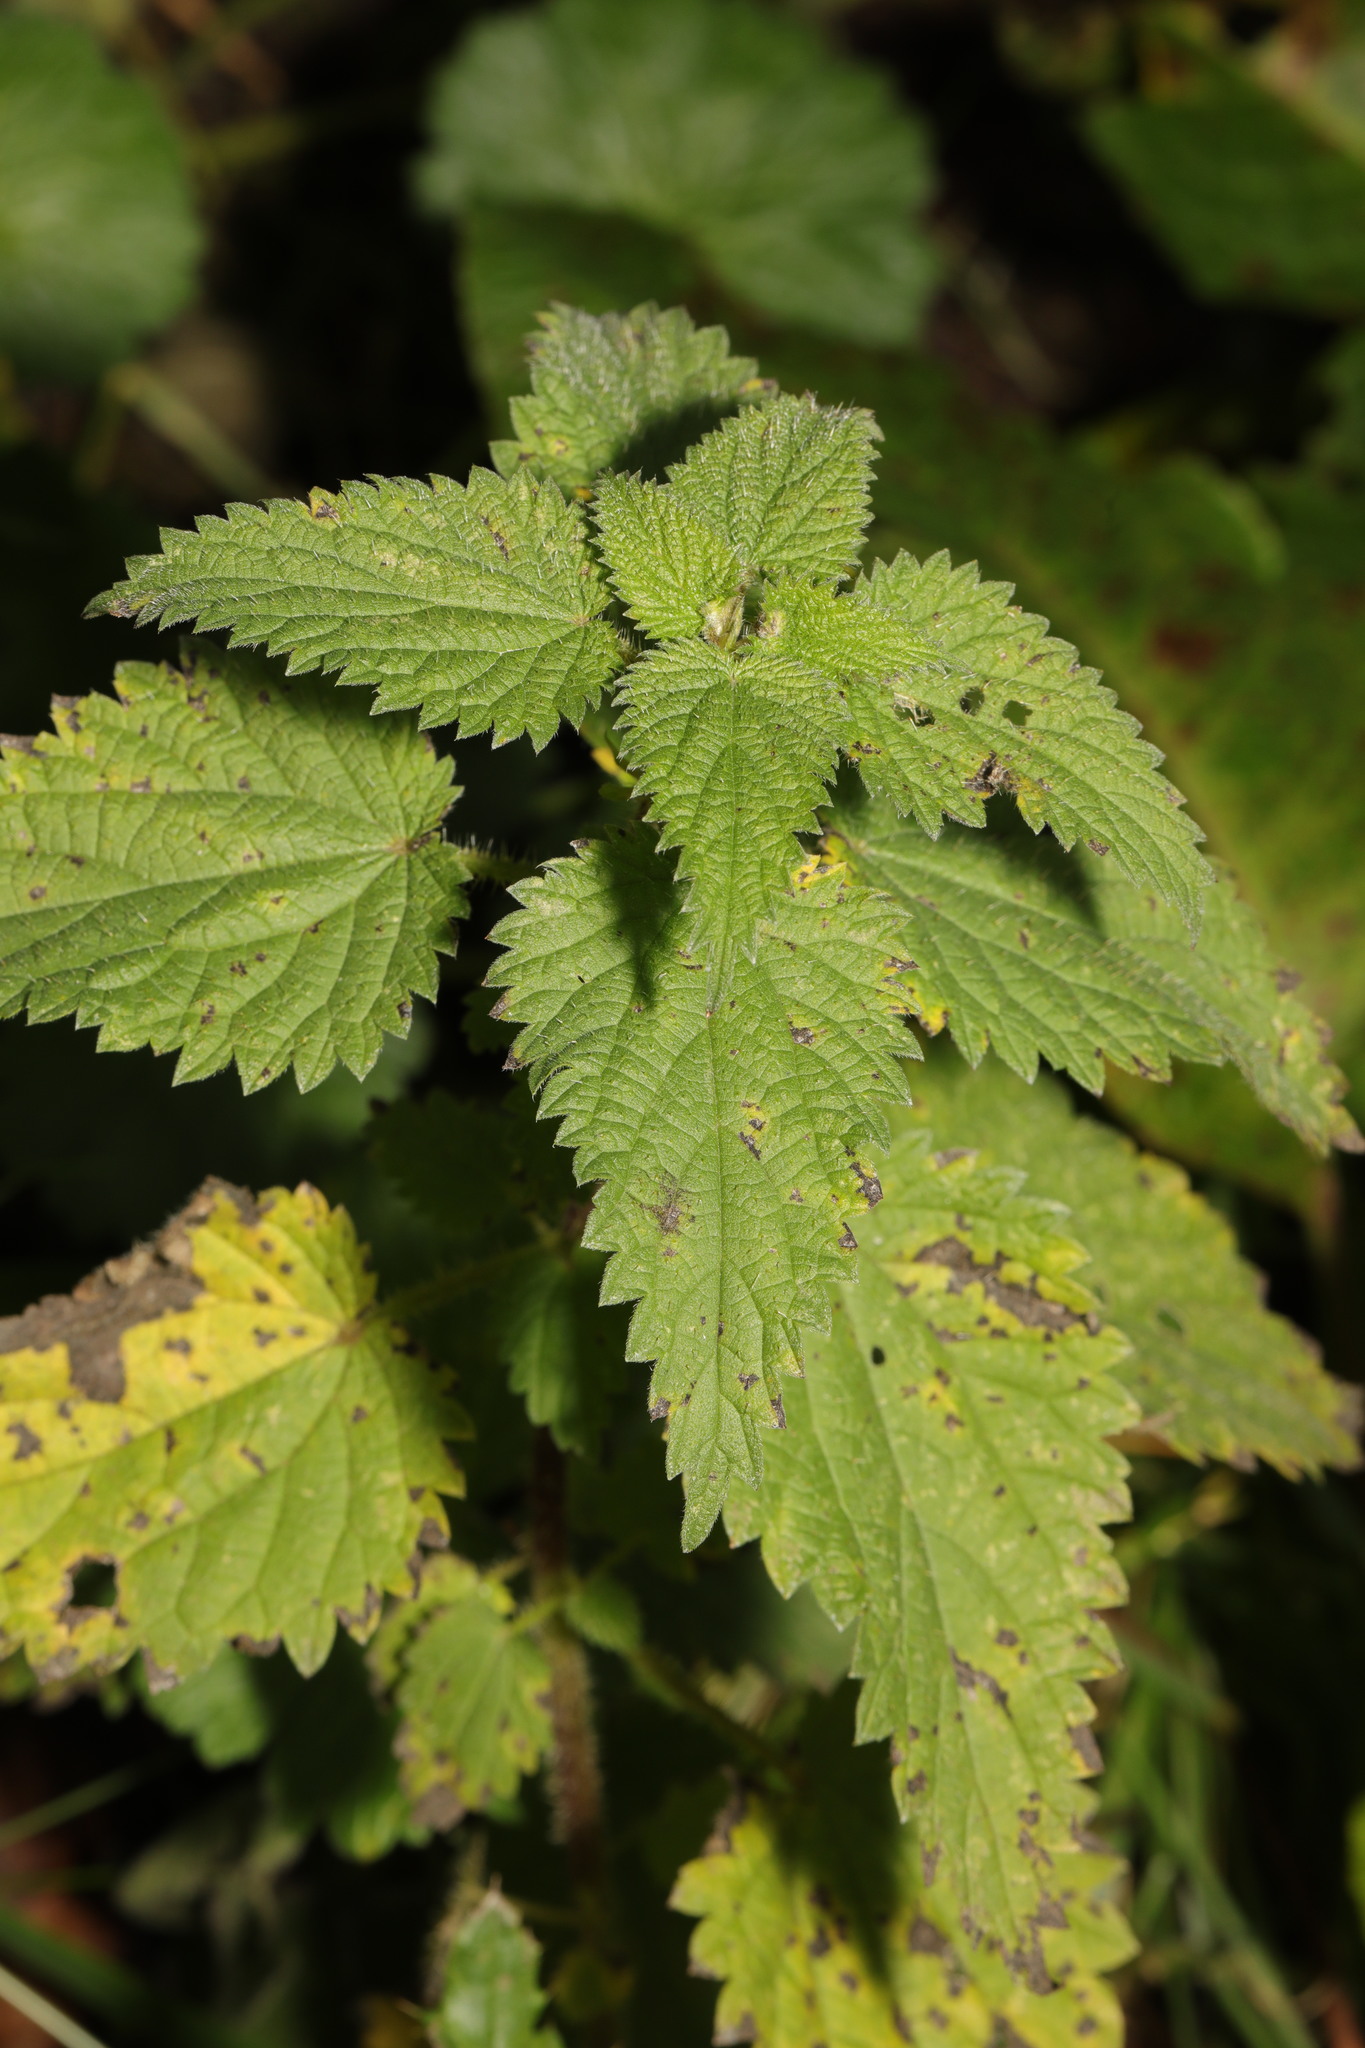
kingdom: Plantae
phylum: Tracheophyta
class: Magnoliopsida
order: Rosales
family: Urticaceae
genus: Urtica
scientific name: Urtica dioica
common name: Common nettle
